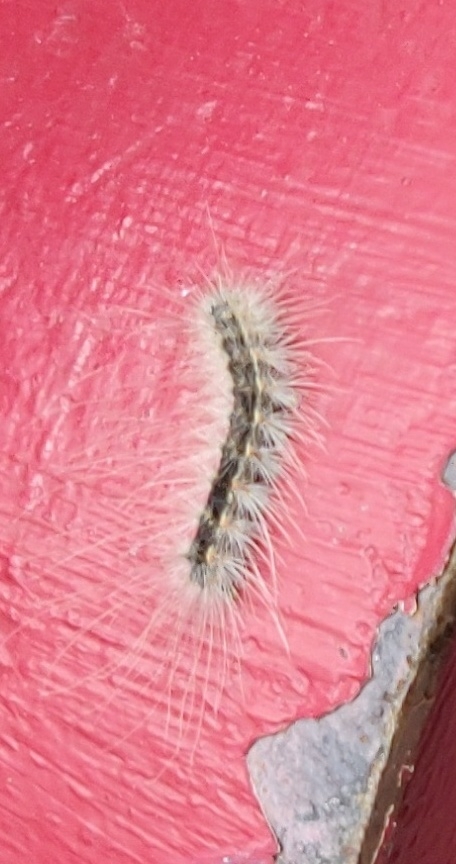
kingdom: Animalia
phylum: Arthropoda
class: Insecta
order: Lepidoptera
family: Erebidae
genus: Hyphantria
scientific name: Hyphantria cunea
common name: American white moth
